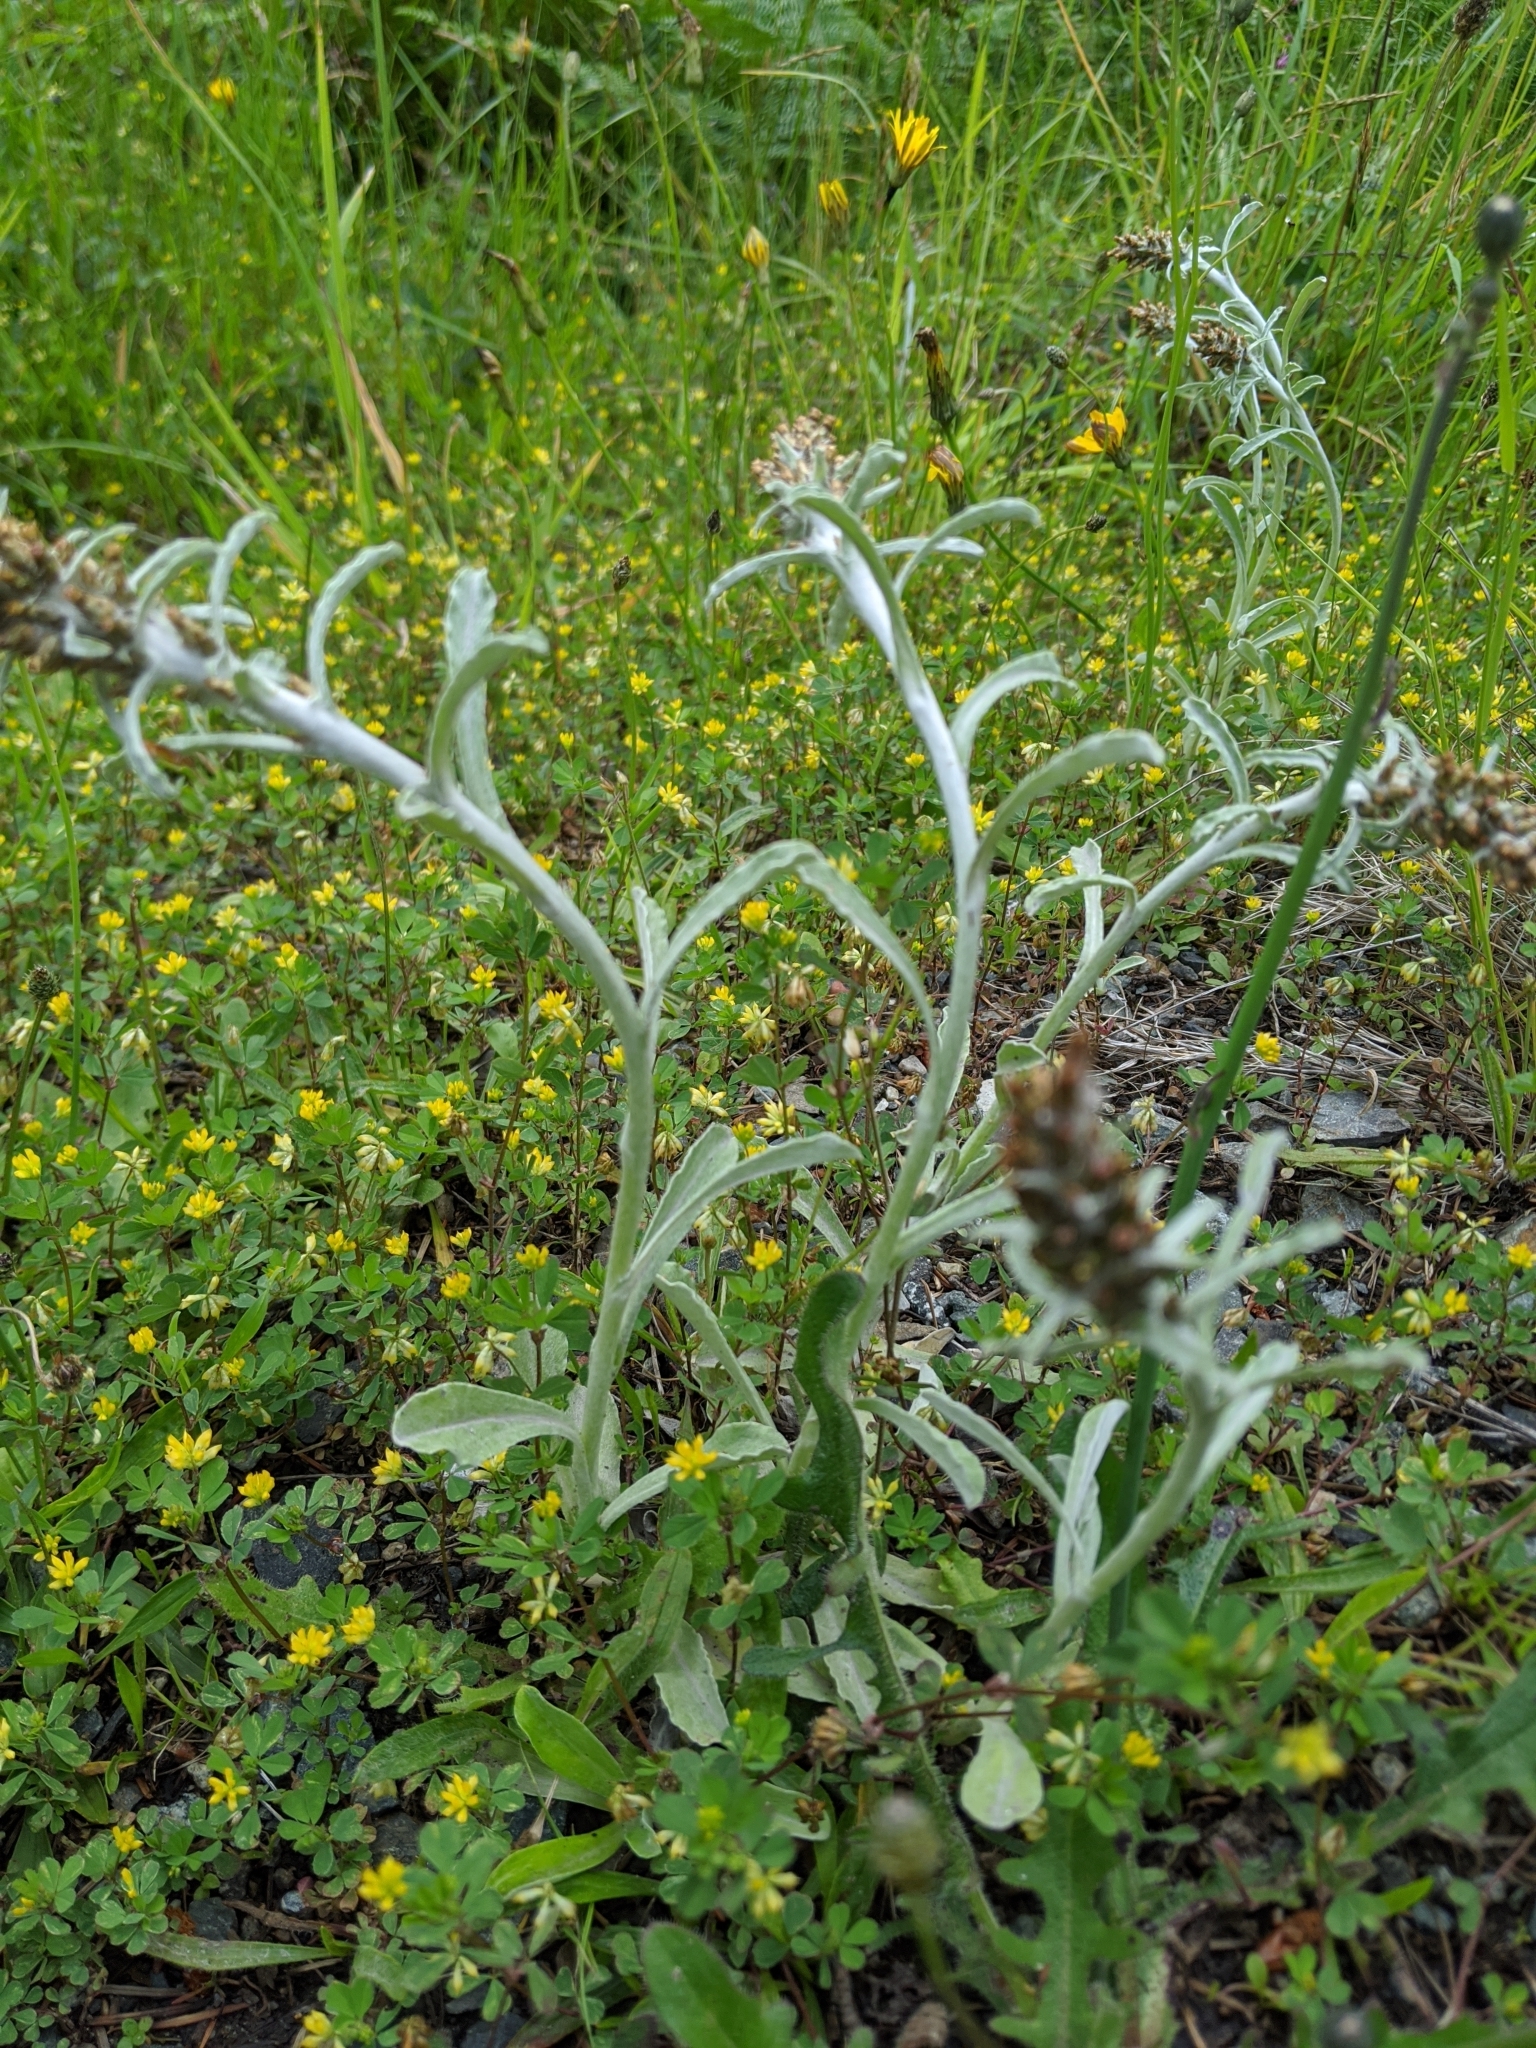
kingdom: Plantae
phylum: Tracheophyta
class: Magnoliopsida
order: Asterales
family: Asteraceae
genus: Gamochaeta
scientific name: Gamochaeta ustulata
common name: Pacific cudweed
